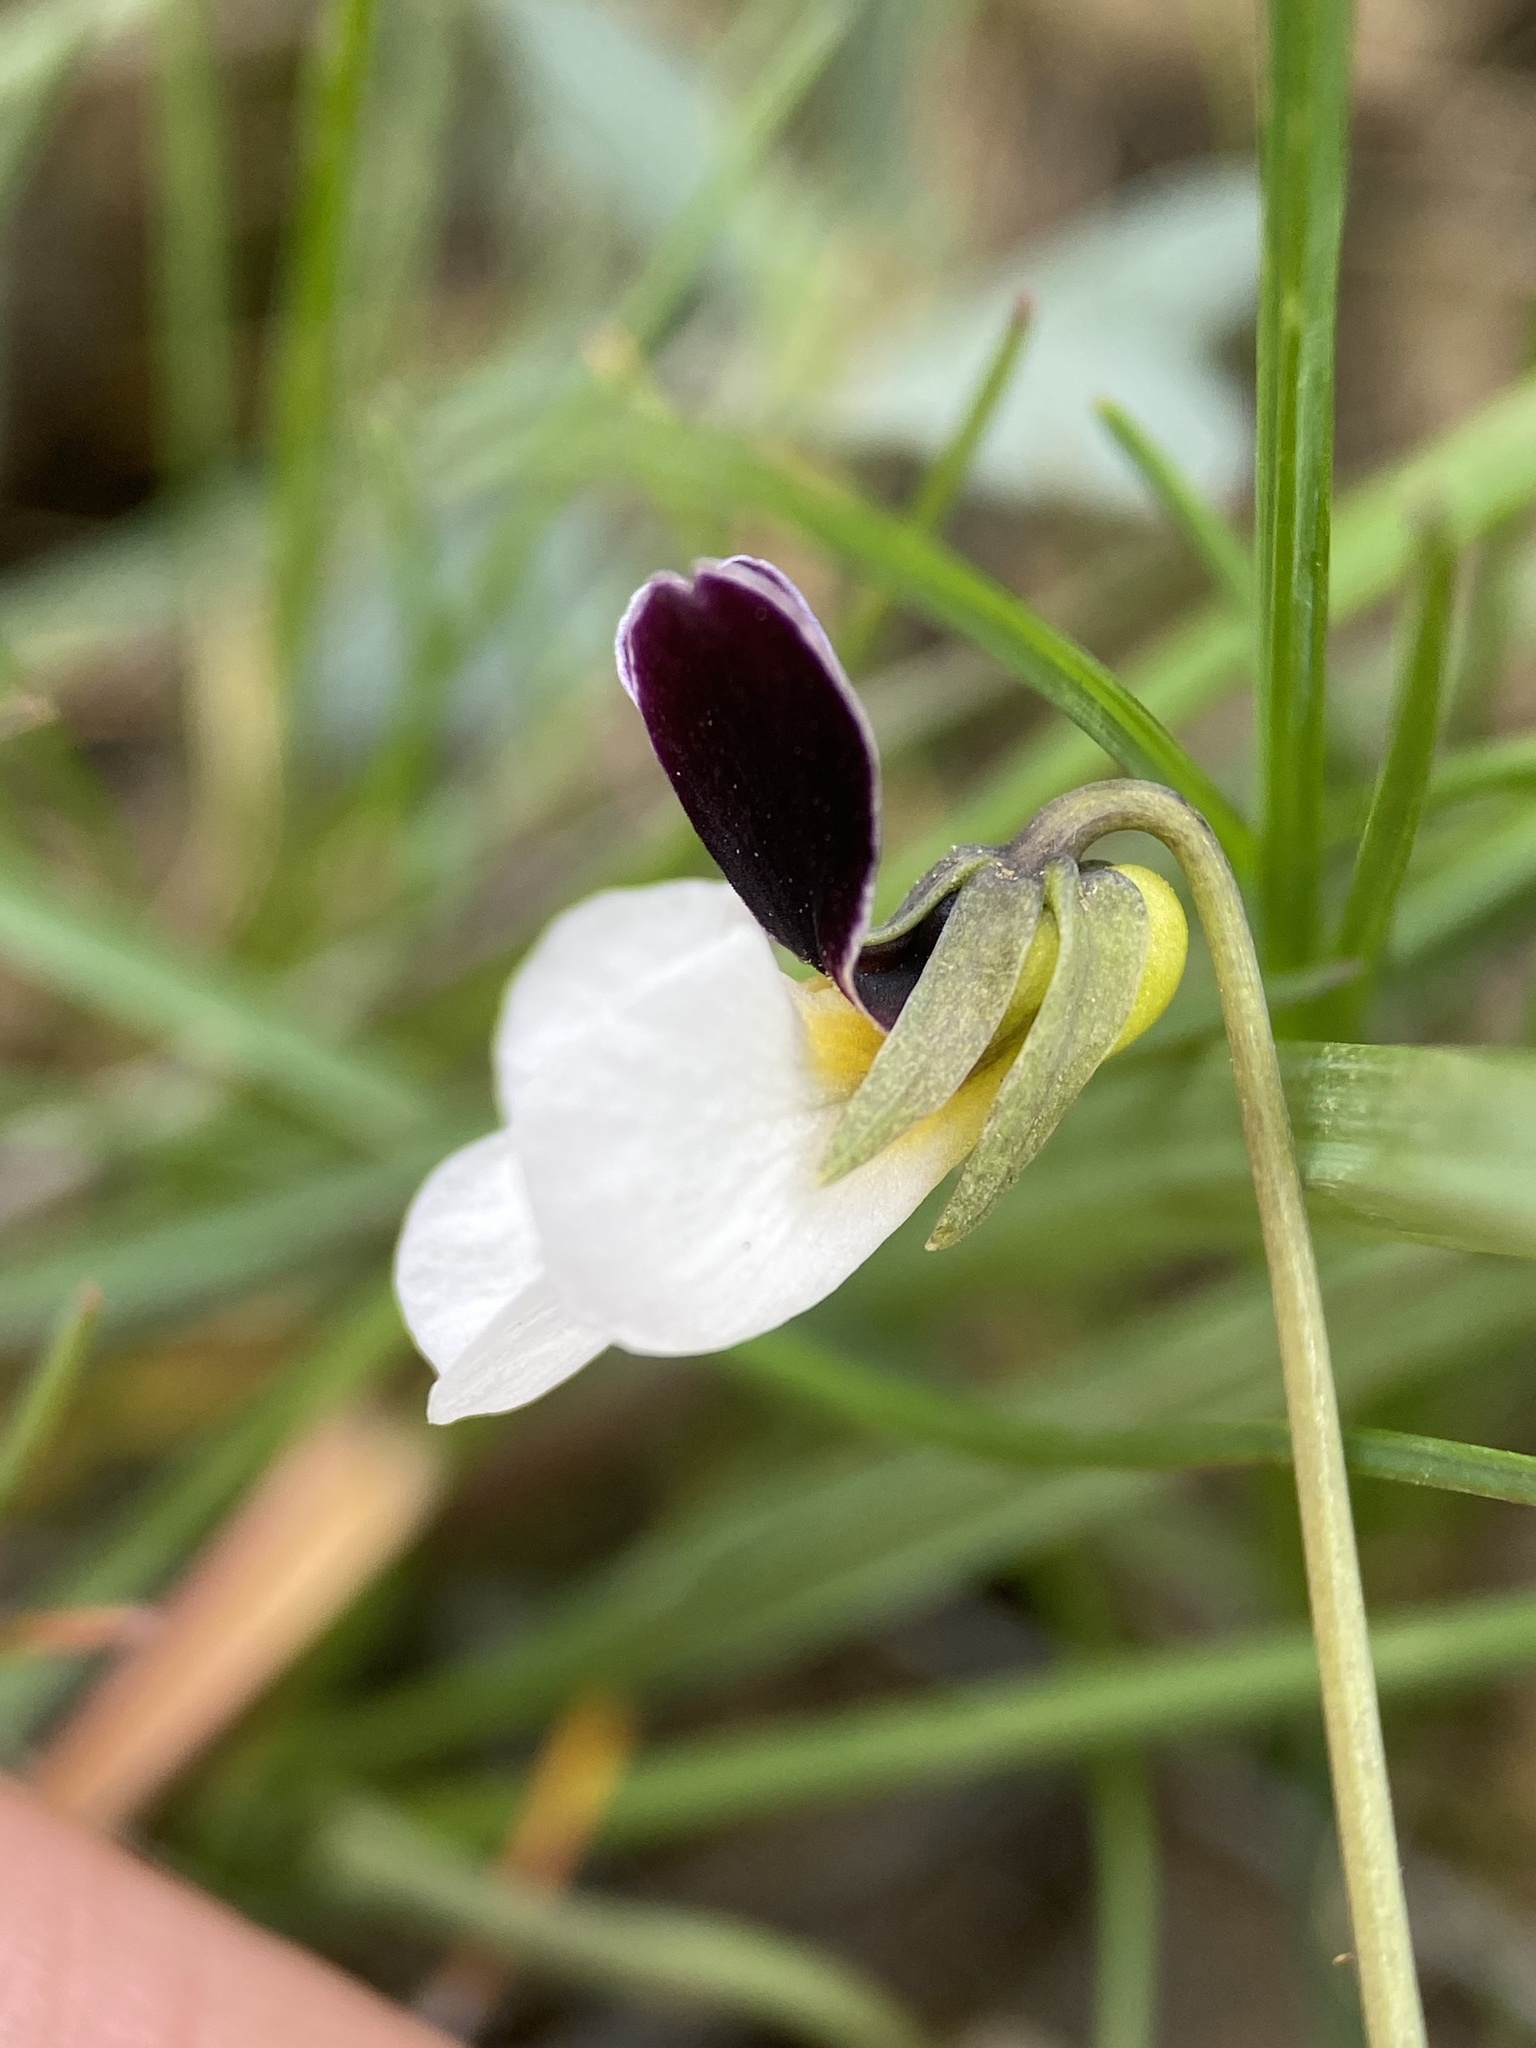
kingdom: Plantae
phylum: Tracheophyta
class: Magnoliopsida
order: Malpighiales
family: Violaceae
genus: Viola
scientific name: Viola trinervata
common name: Sagebrush violet
